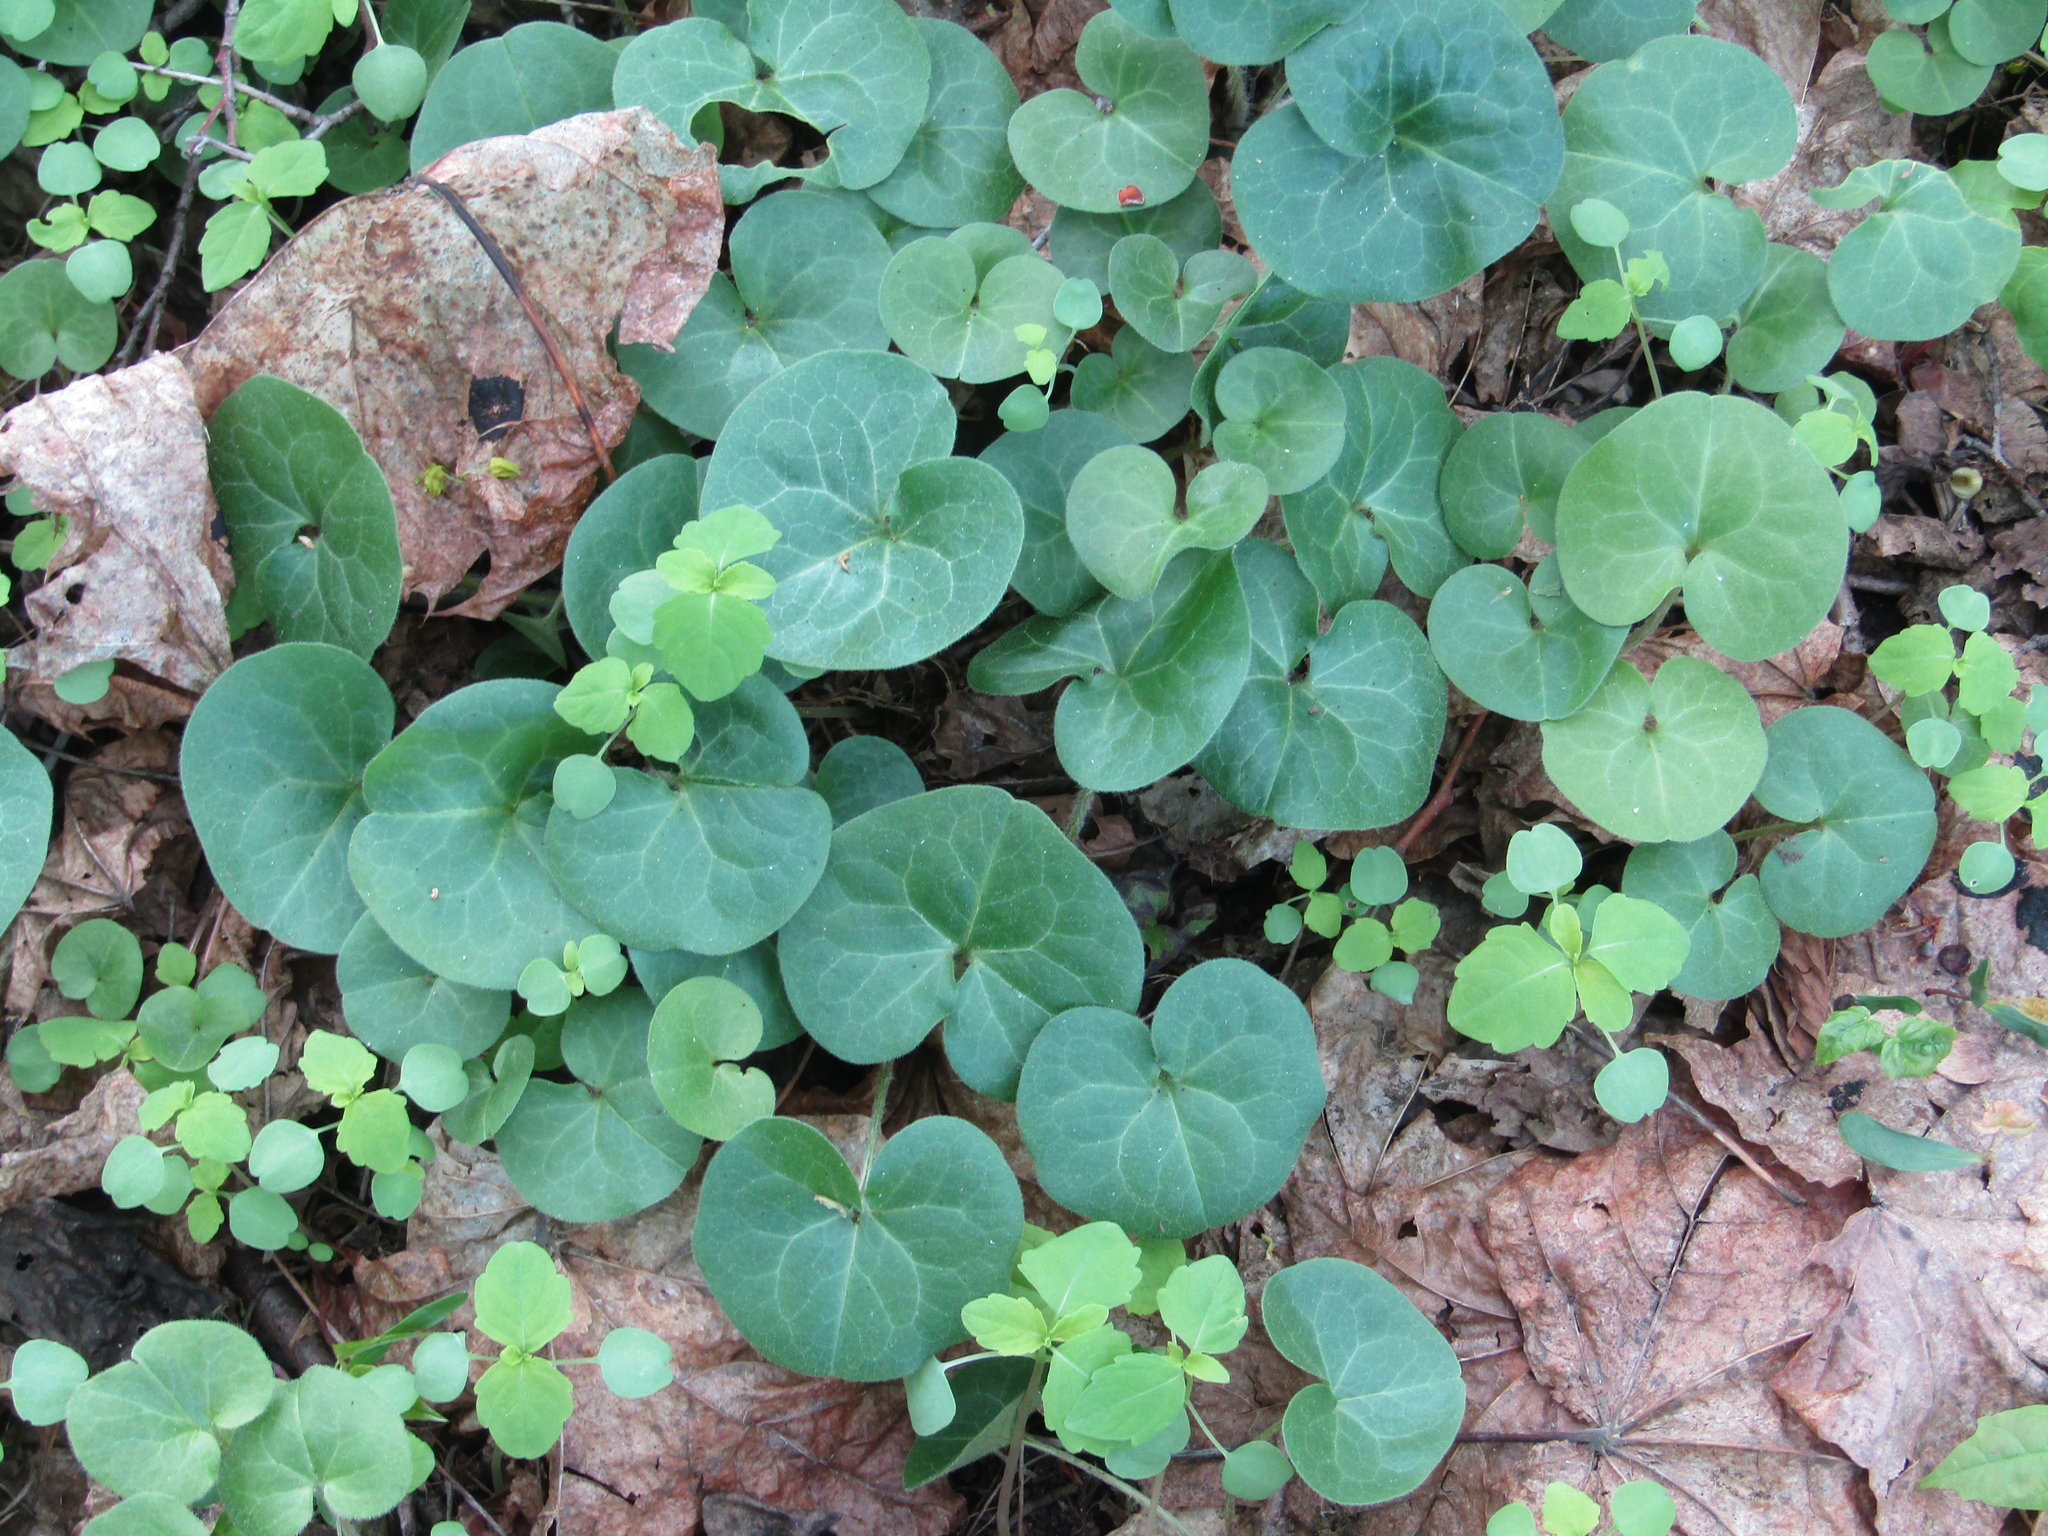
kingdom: Plantae
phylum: Tracheophyta
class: Magnoliopsida
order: Piperales
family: Aristolochiaceae
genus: Asarum
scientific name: Asarum europaeum
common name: Asarabacca
